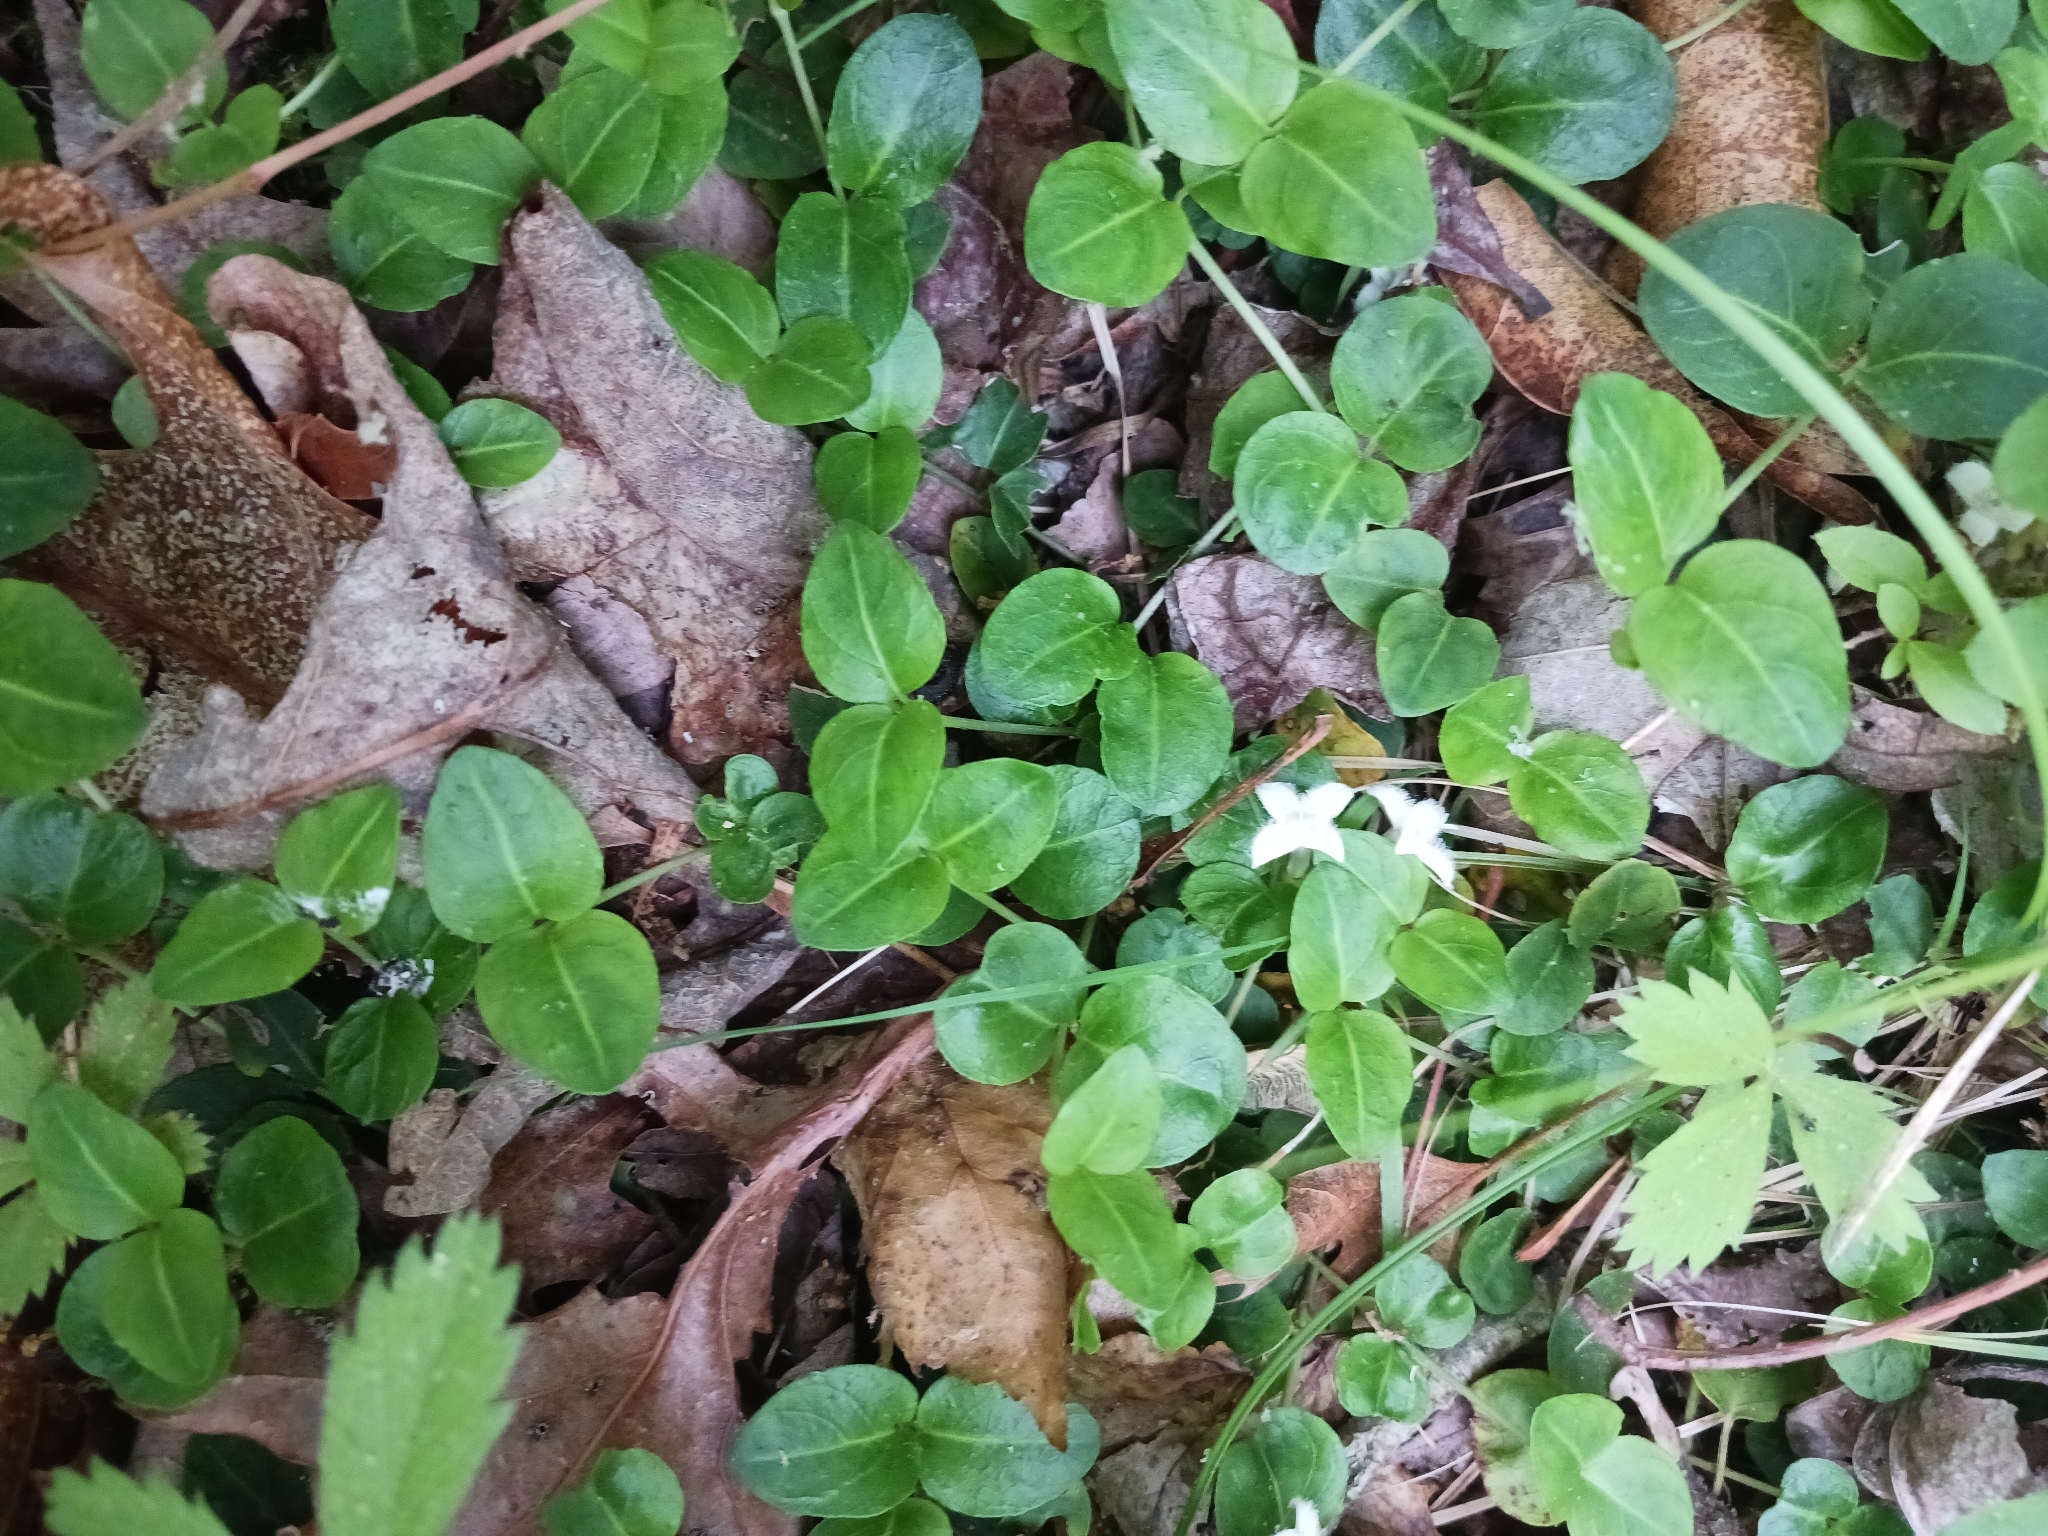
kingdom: Plantae
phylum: Tracheophyta
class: Magnoliopsida
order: Gentianales
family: Rubiaceae
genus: Mitchella
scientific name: Mitchella repens
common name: Partridge-berry
